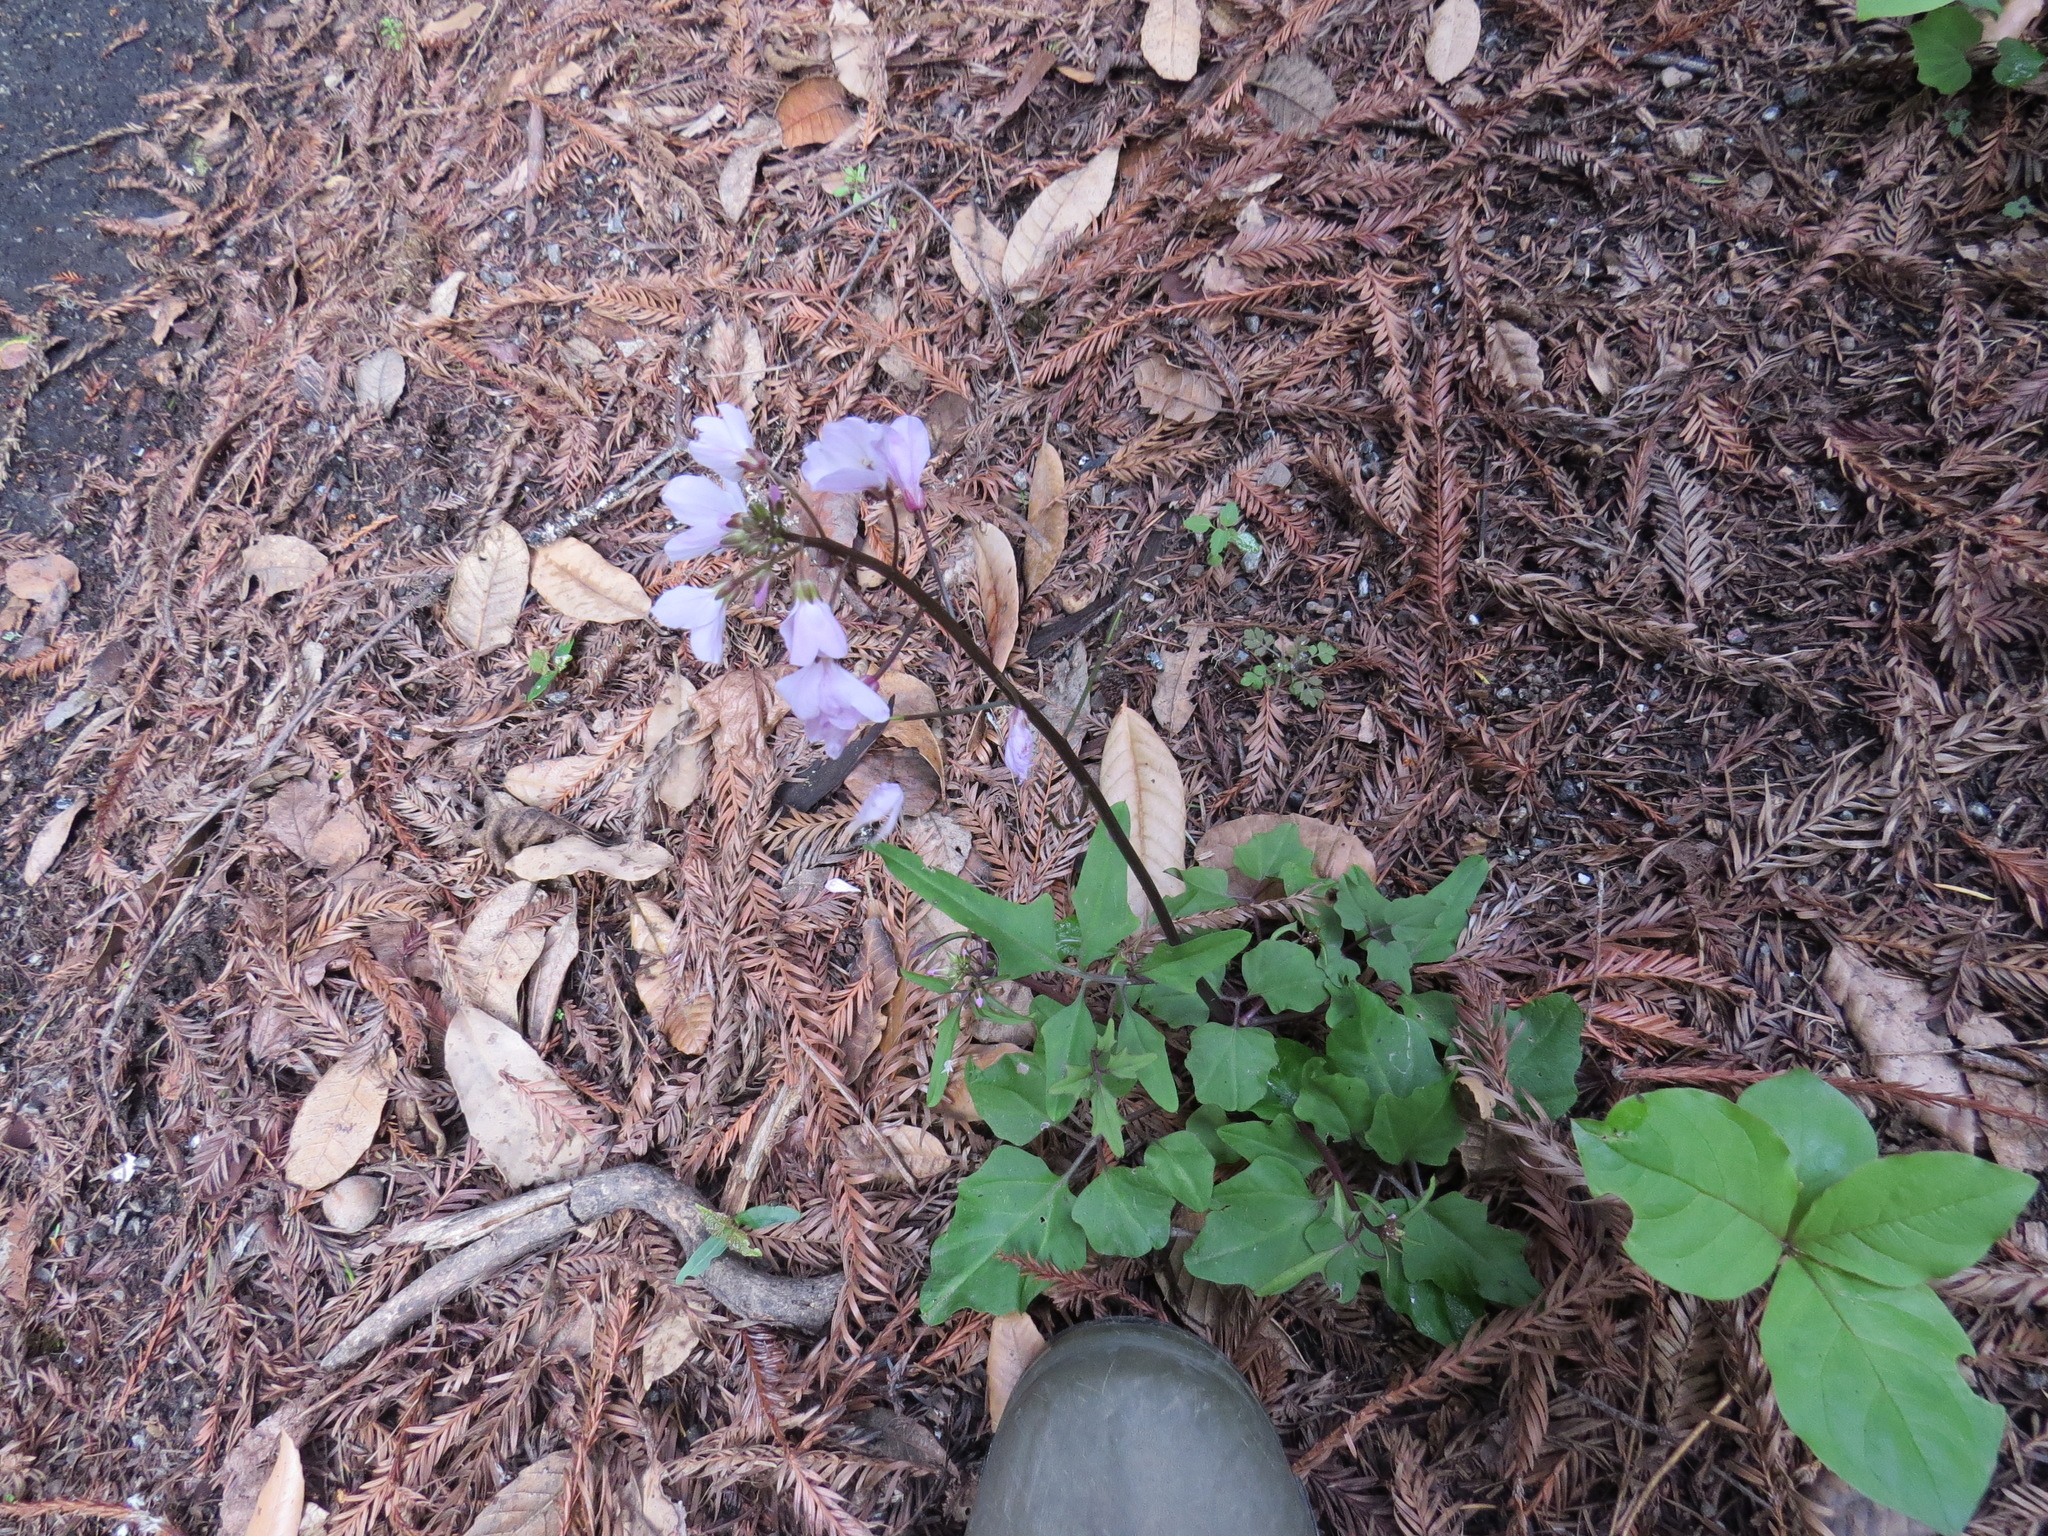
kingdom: Plantae
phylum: Tracheophyta
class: Magnoliopsida
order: Brassicales
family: Brassicaceae
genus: Cardamine
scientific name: Cardamine californica
